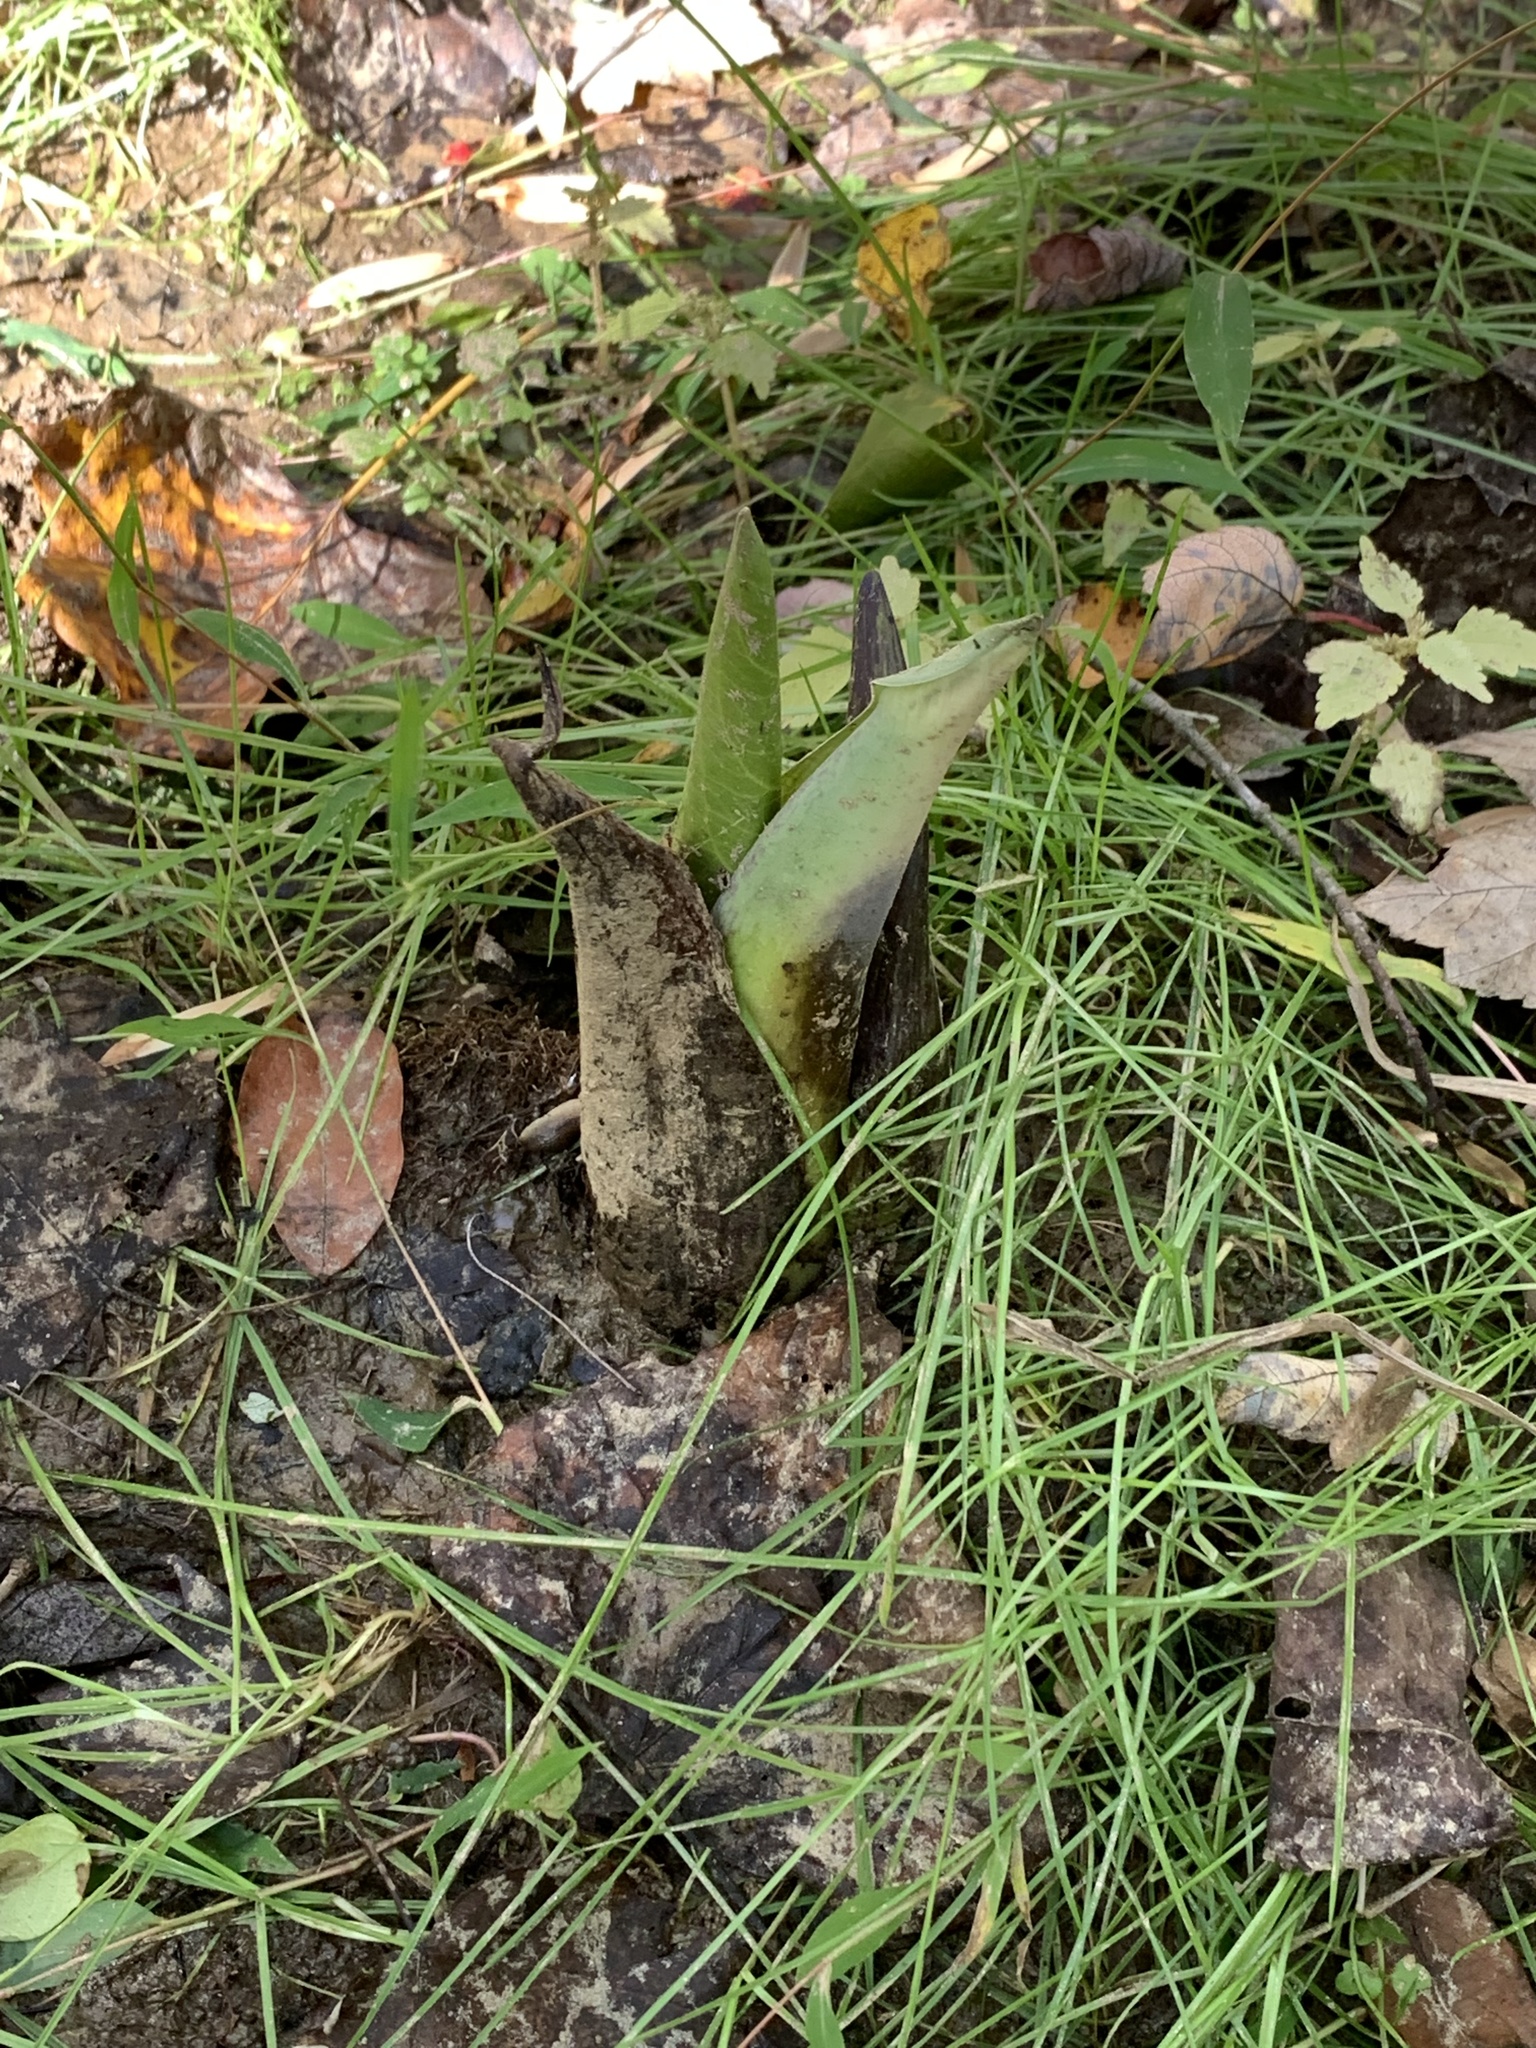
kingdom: Plantae
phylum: Tracheophyta
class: Liliopsida
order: Alismatales
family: Araceae
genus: Symplocarpus
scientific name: Symplocarpus foetidus
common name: Eastern skunk cabbage
